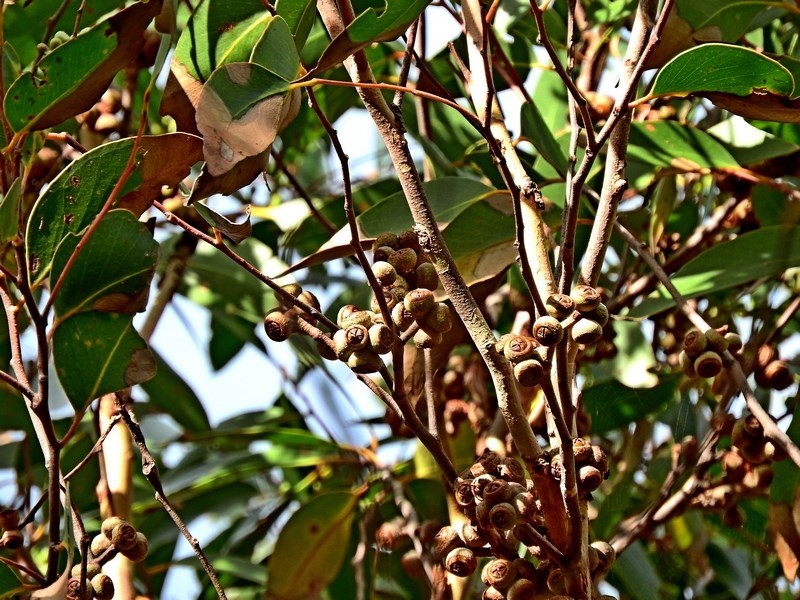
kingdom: Plantae
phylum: Tracheophyta
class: Magnoliopsida
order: Myrtales
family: Myrtaceae
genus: Eucalyptus
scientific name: Eucalyptus baxteri
